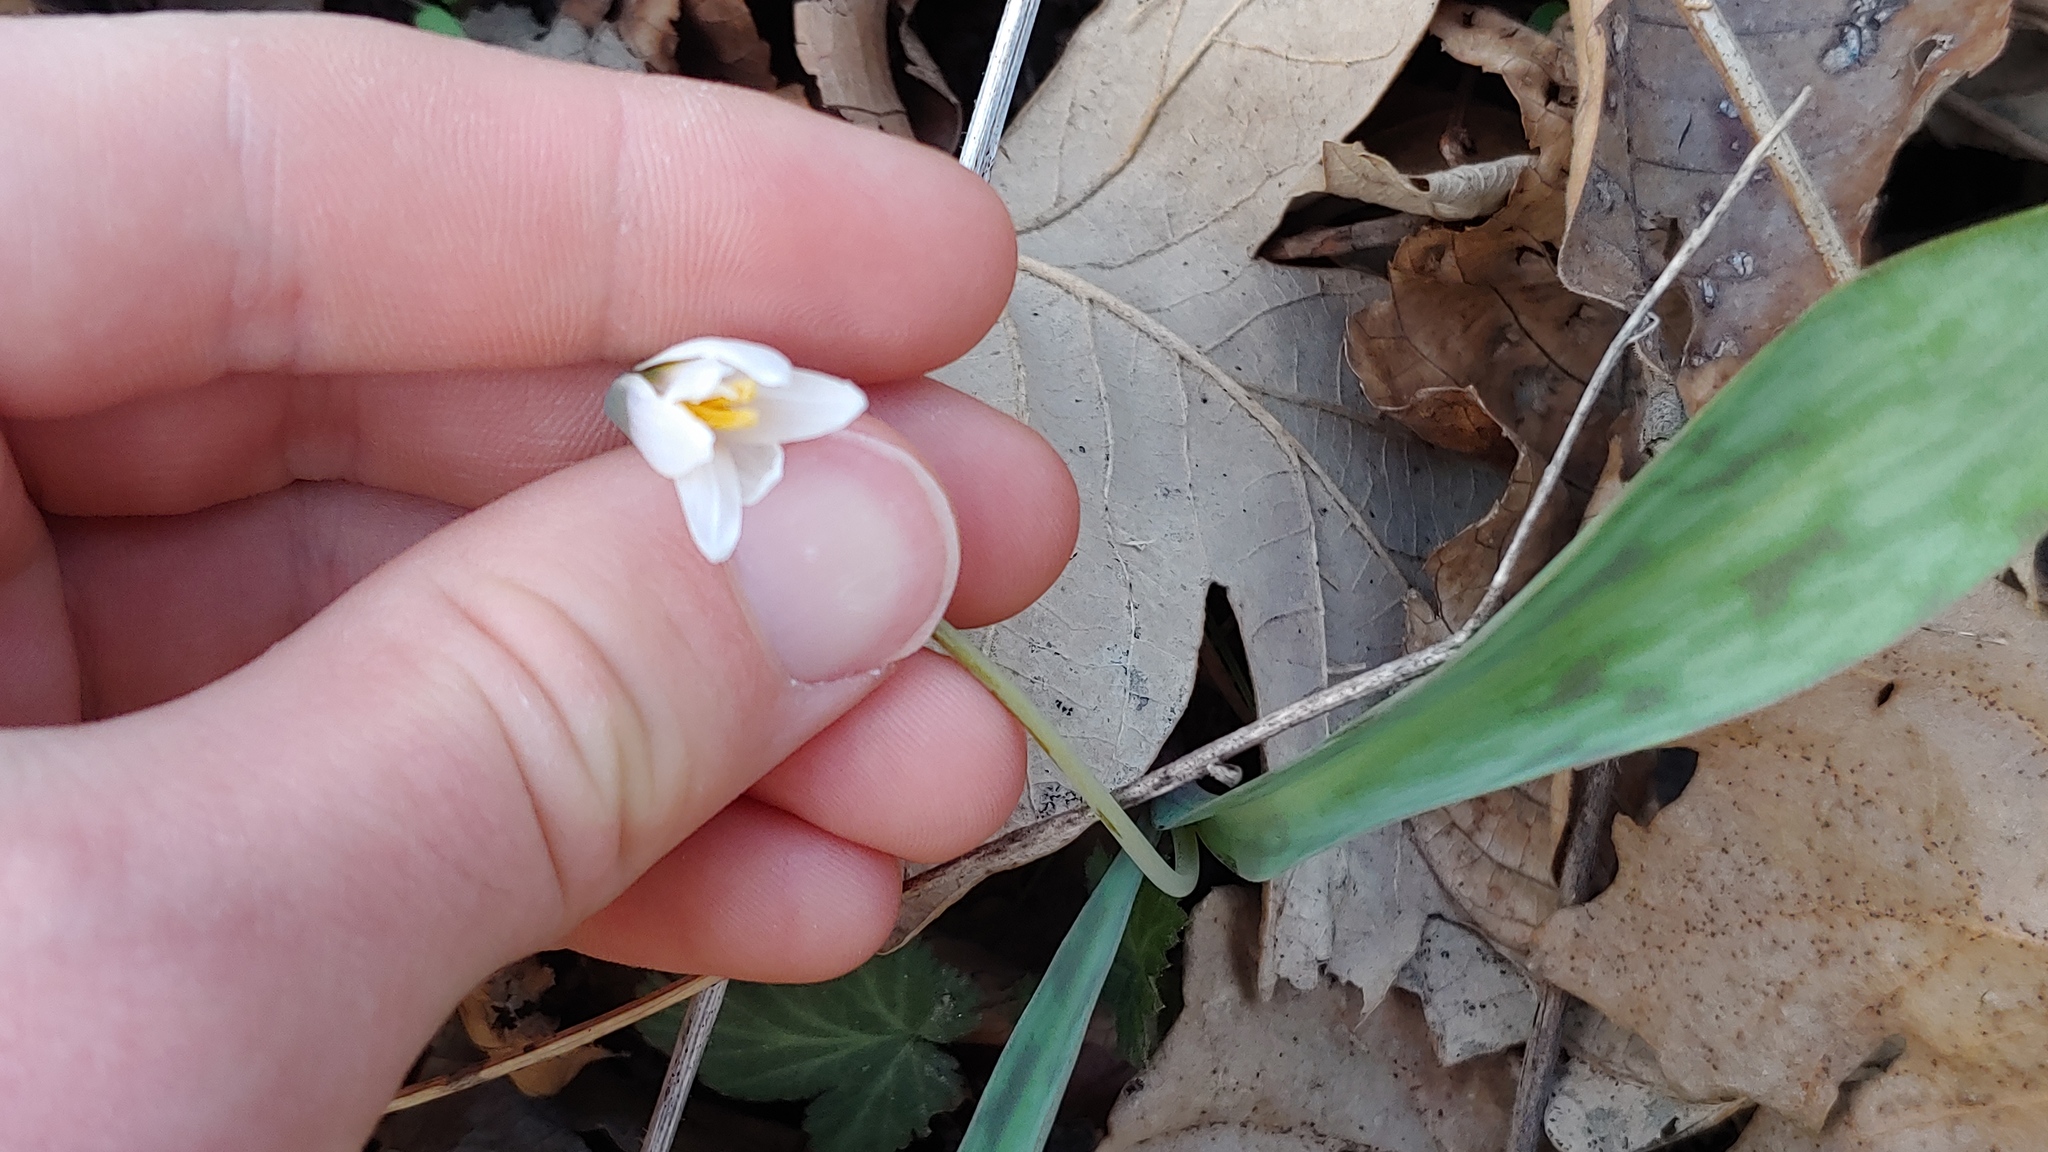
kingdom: Plantae
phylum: Tracheophyta
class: Liliopsida
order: Liliales
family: Liliaceae
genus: Erythronium
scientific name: Erythronium albidum
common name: White trout-lily
